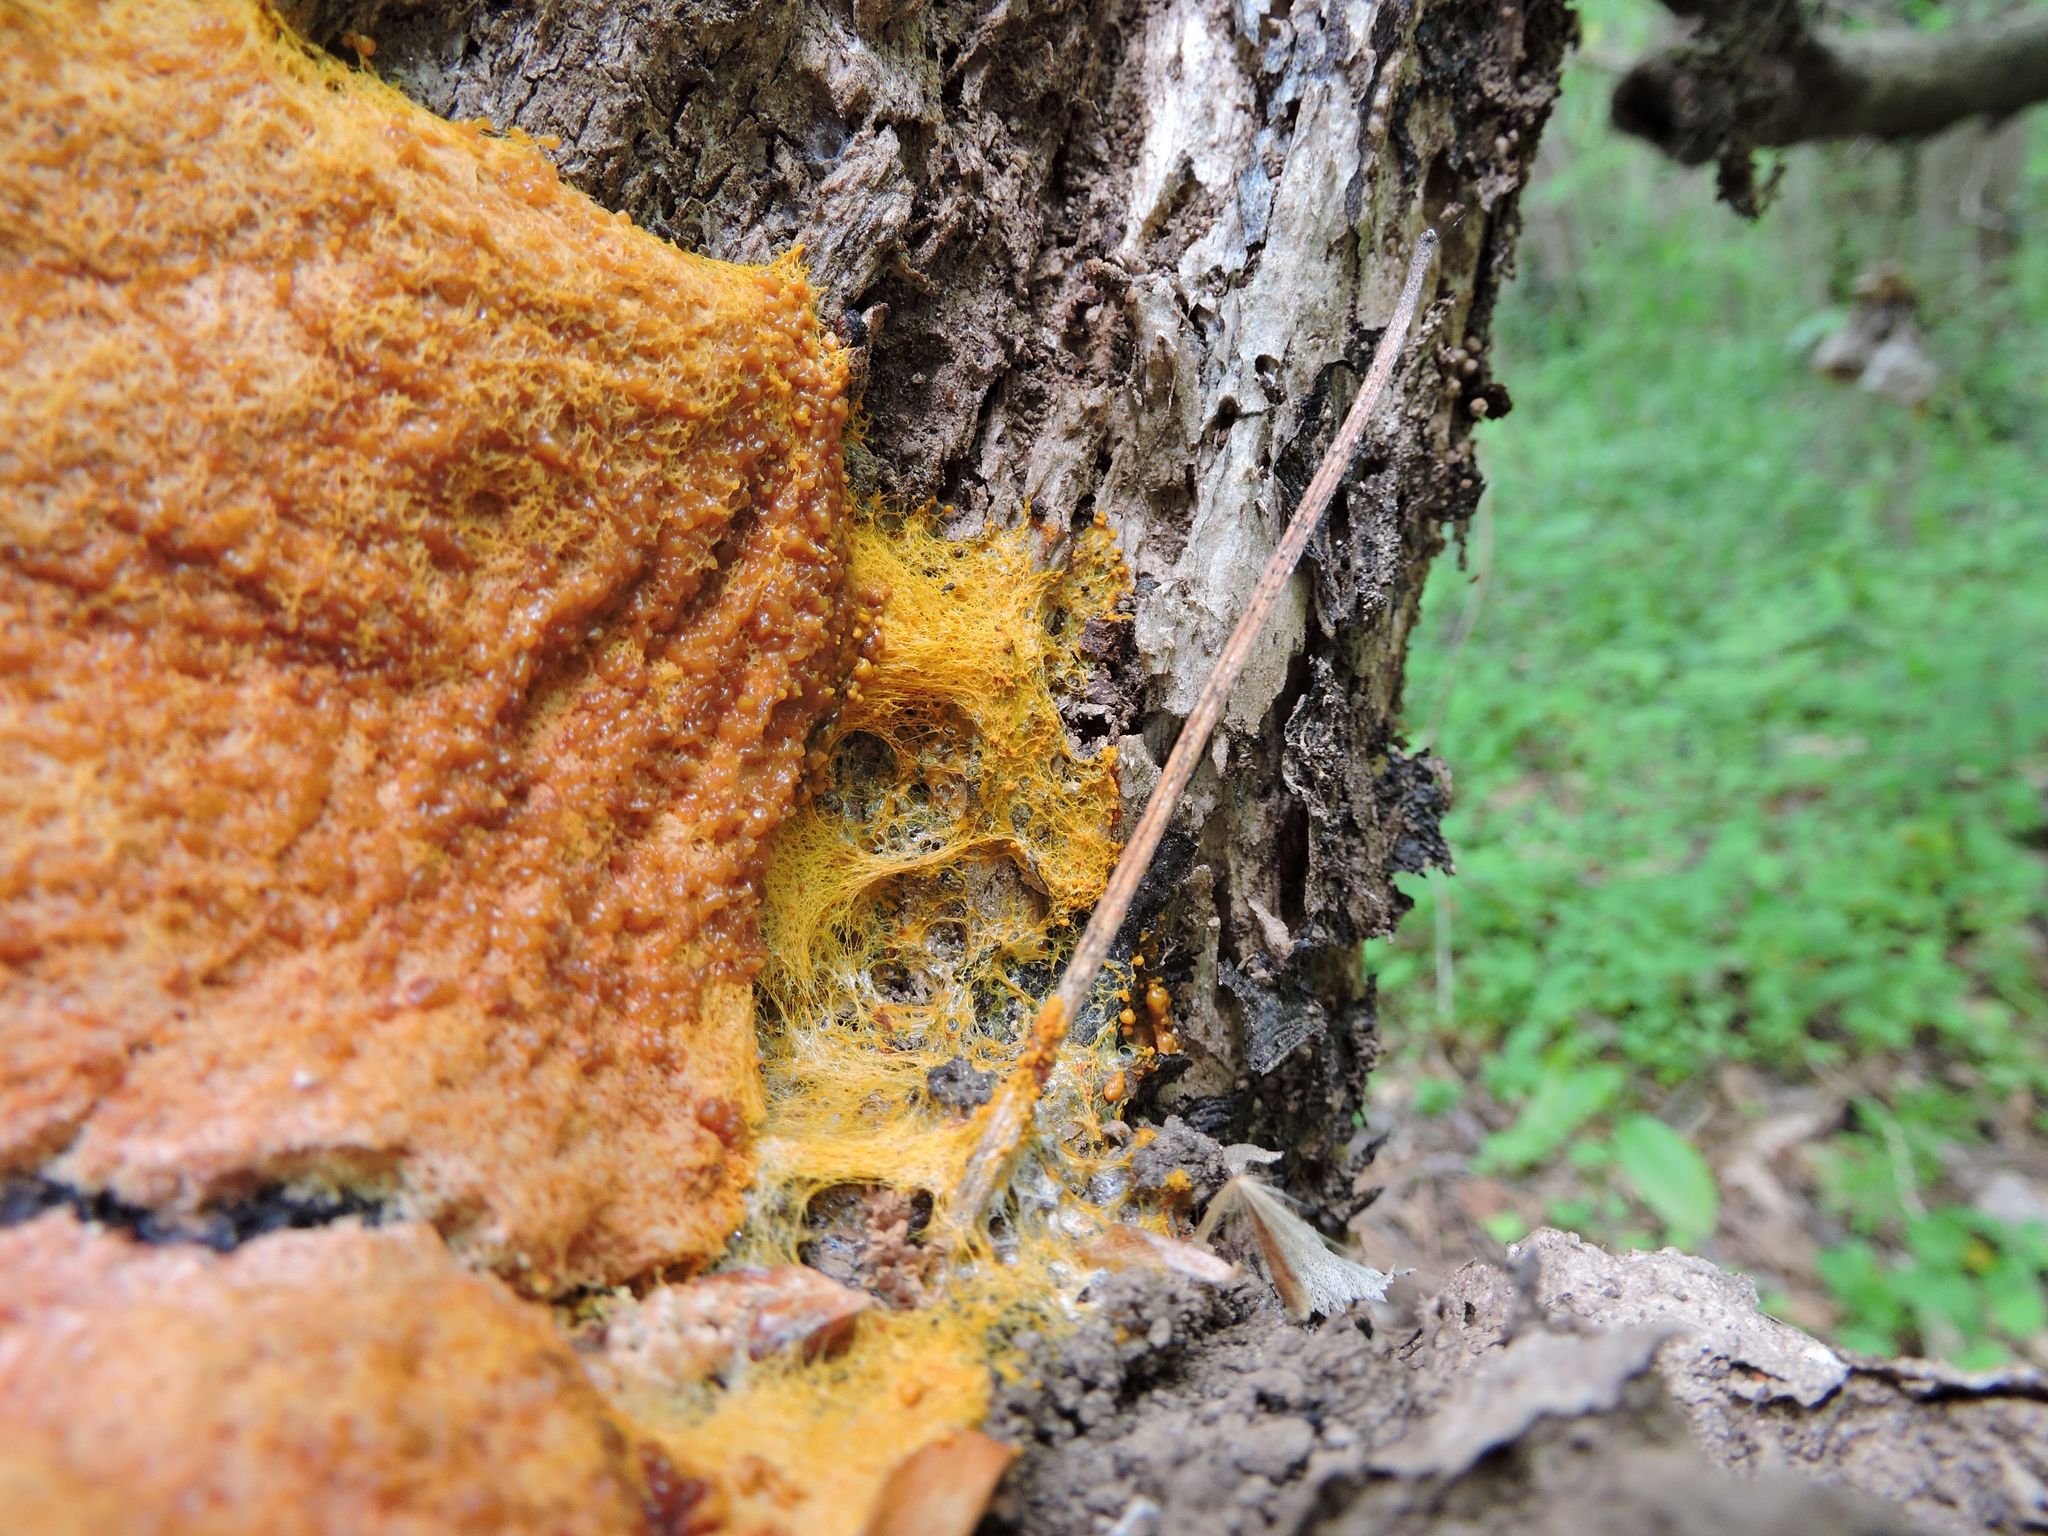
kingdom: Protozoa
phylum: Mycetozoa
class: Myxomycetes
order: Physarales
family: Physaraceae
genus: Fuligo
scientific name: Fuligo septica
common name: Dog vomit slime mold
